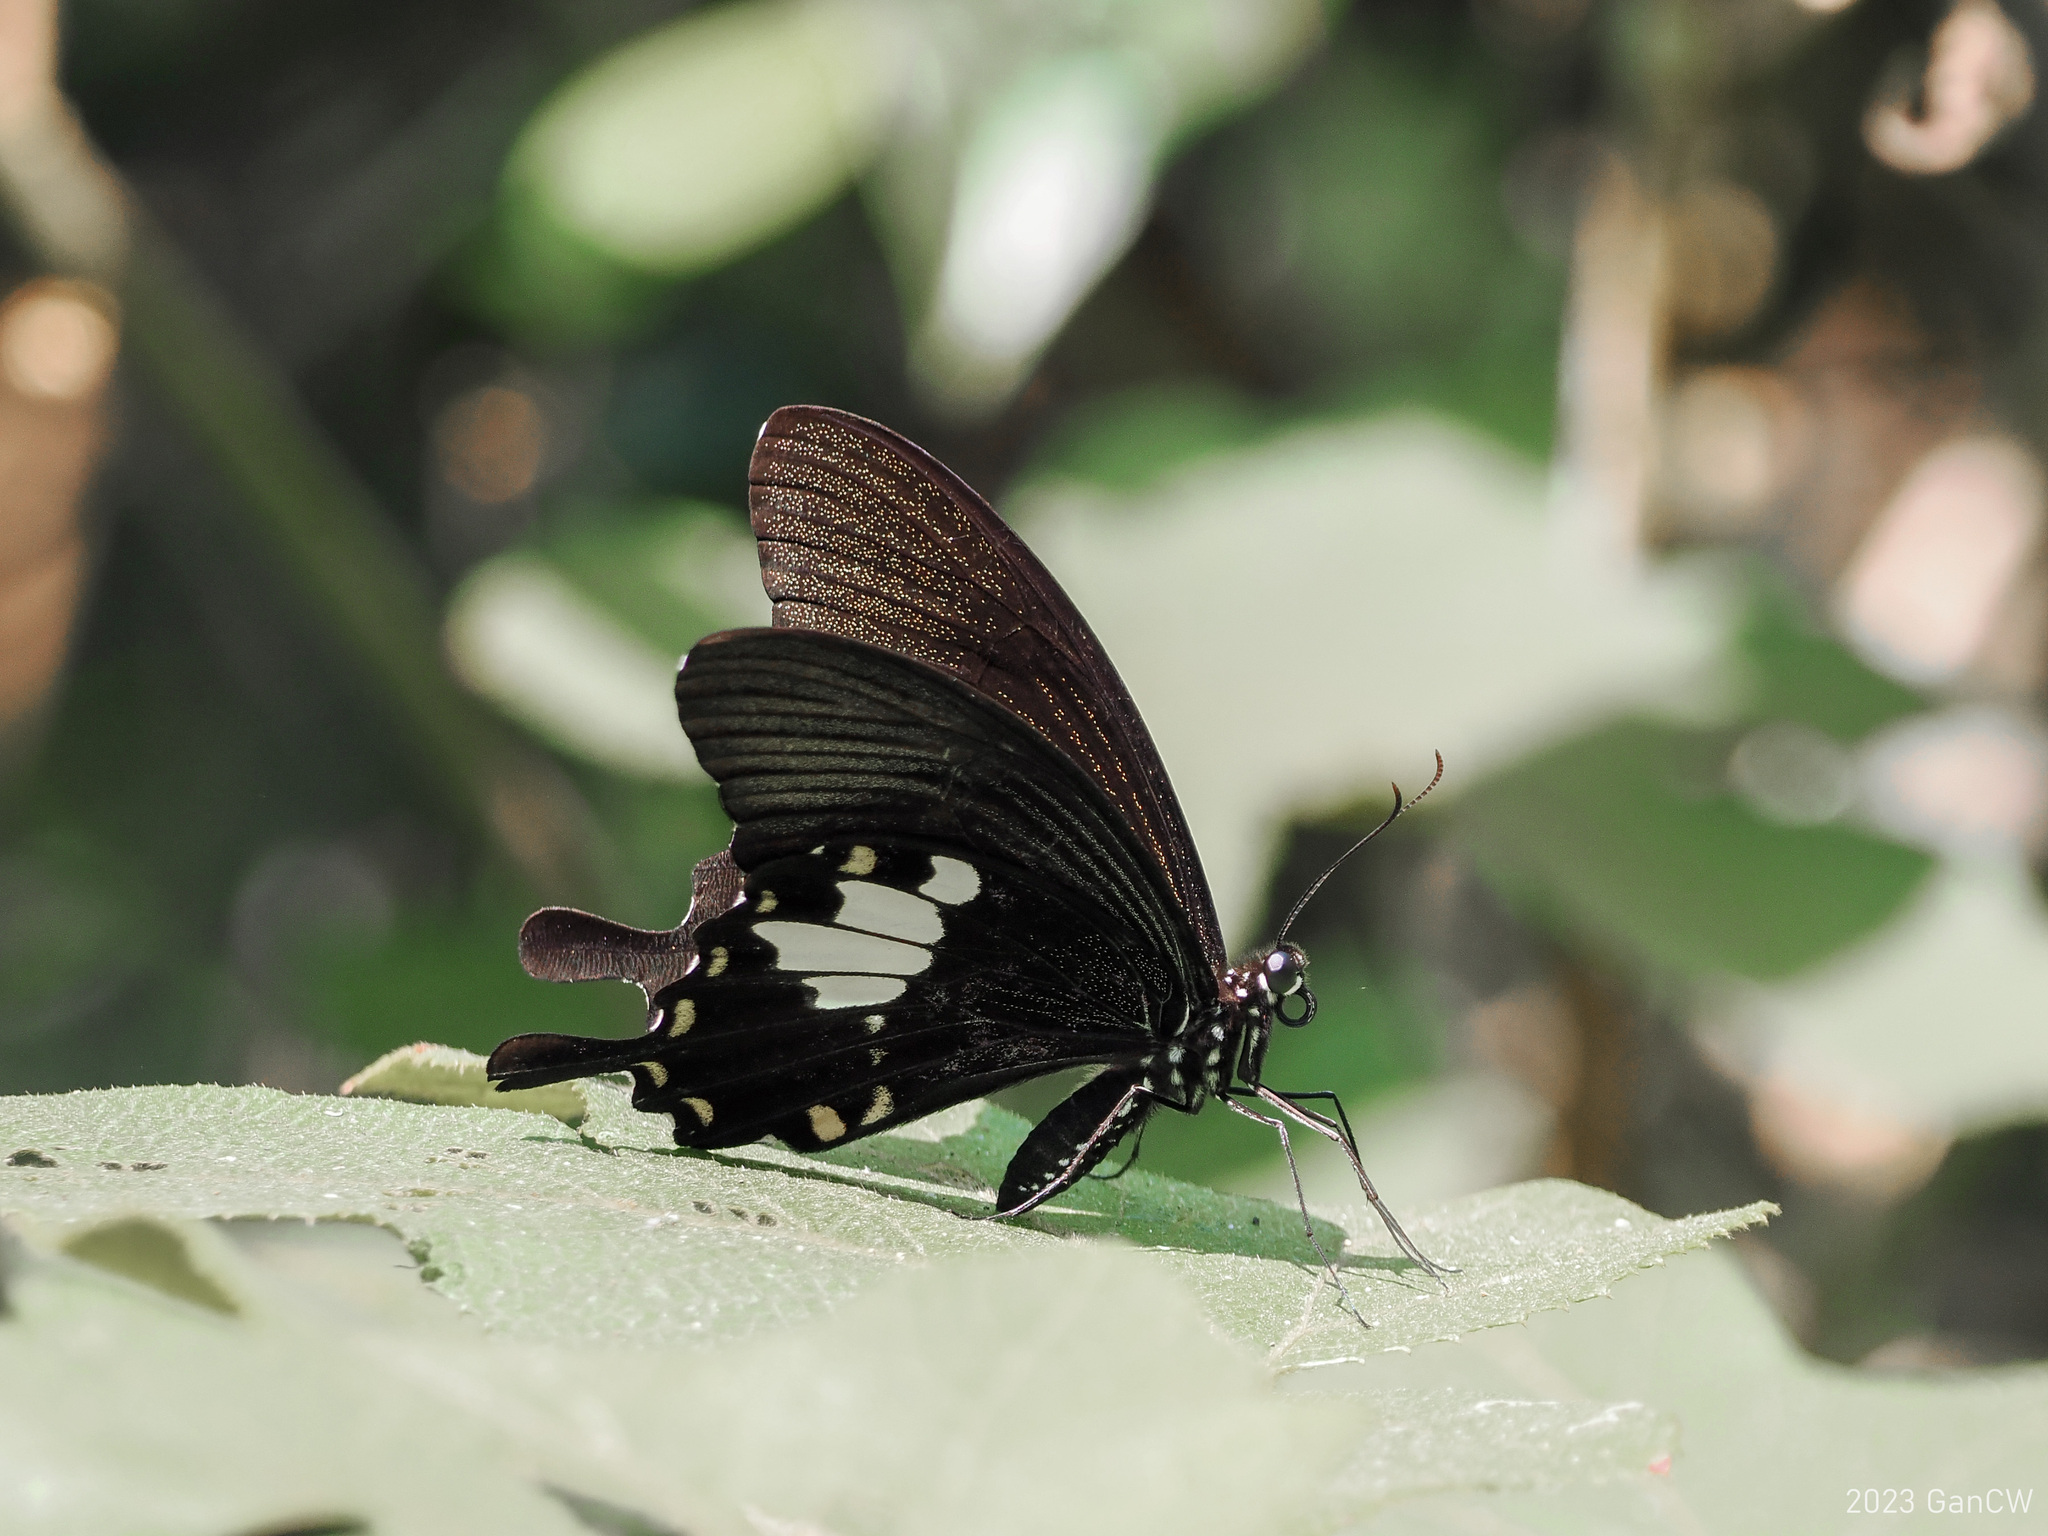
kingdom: Animalia
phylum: Arthropoda
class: Insecta
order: Lepidoptera
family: Papilionidae
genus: Papilio
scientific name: Papilio nephelus
